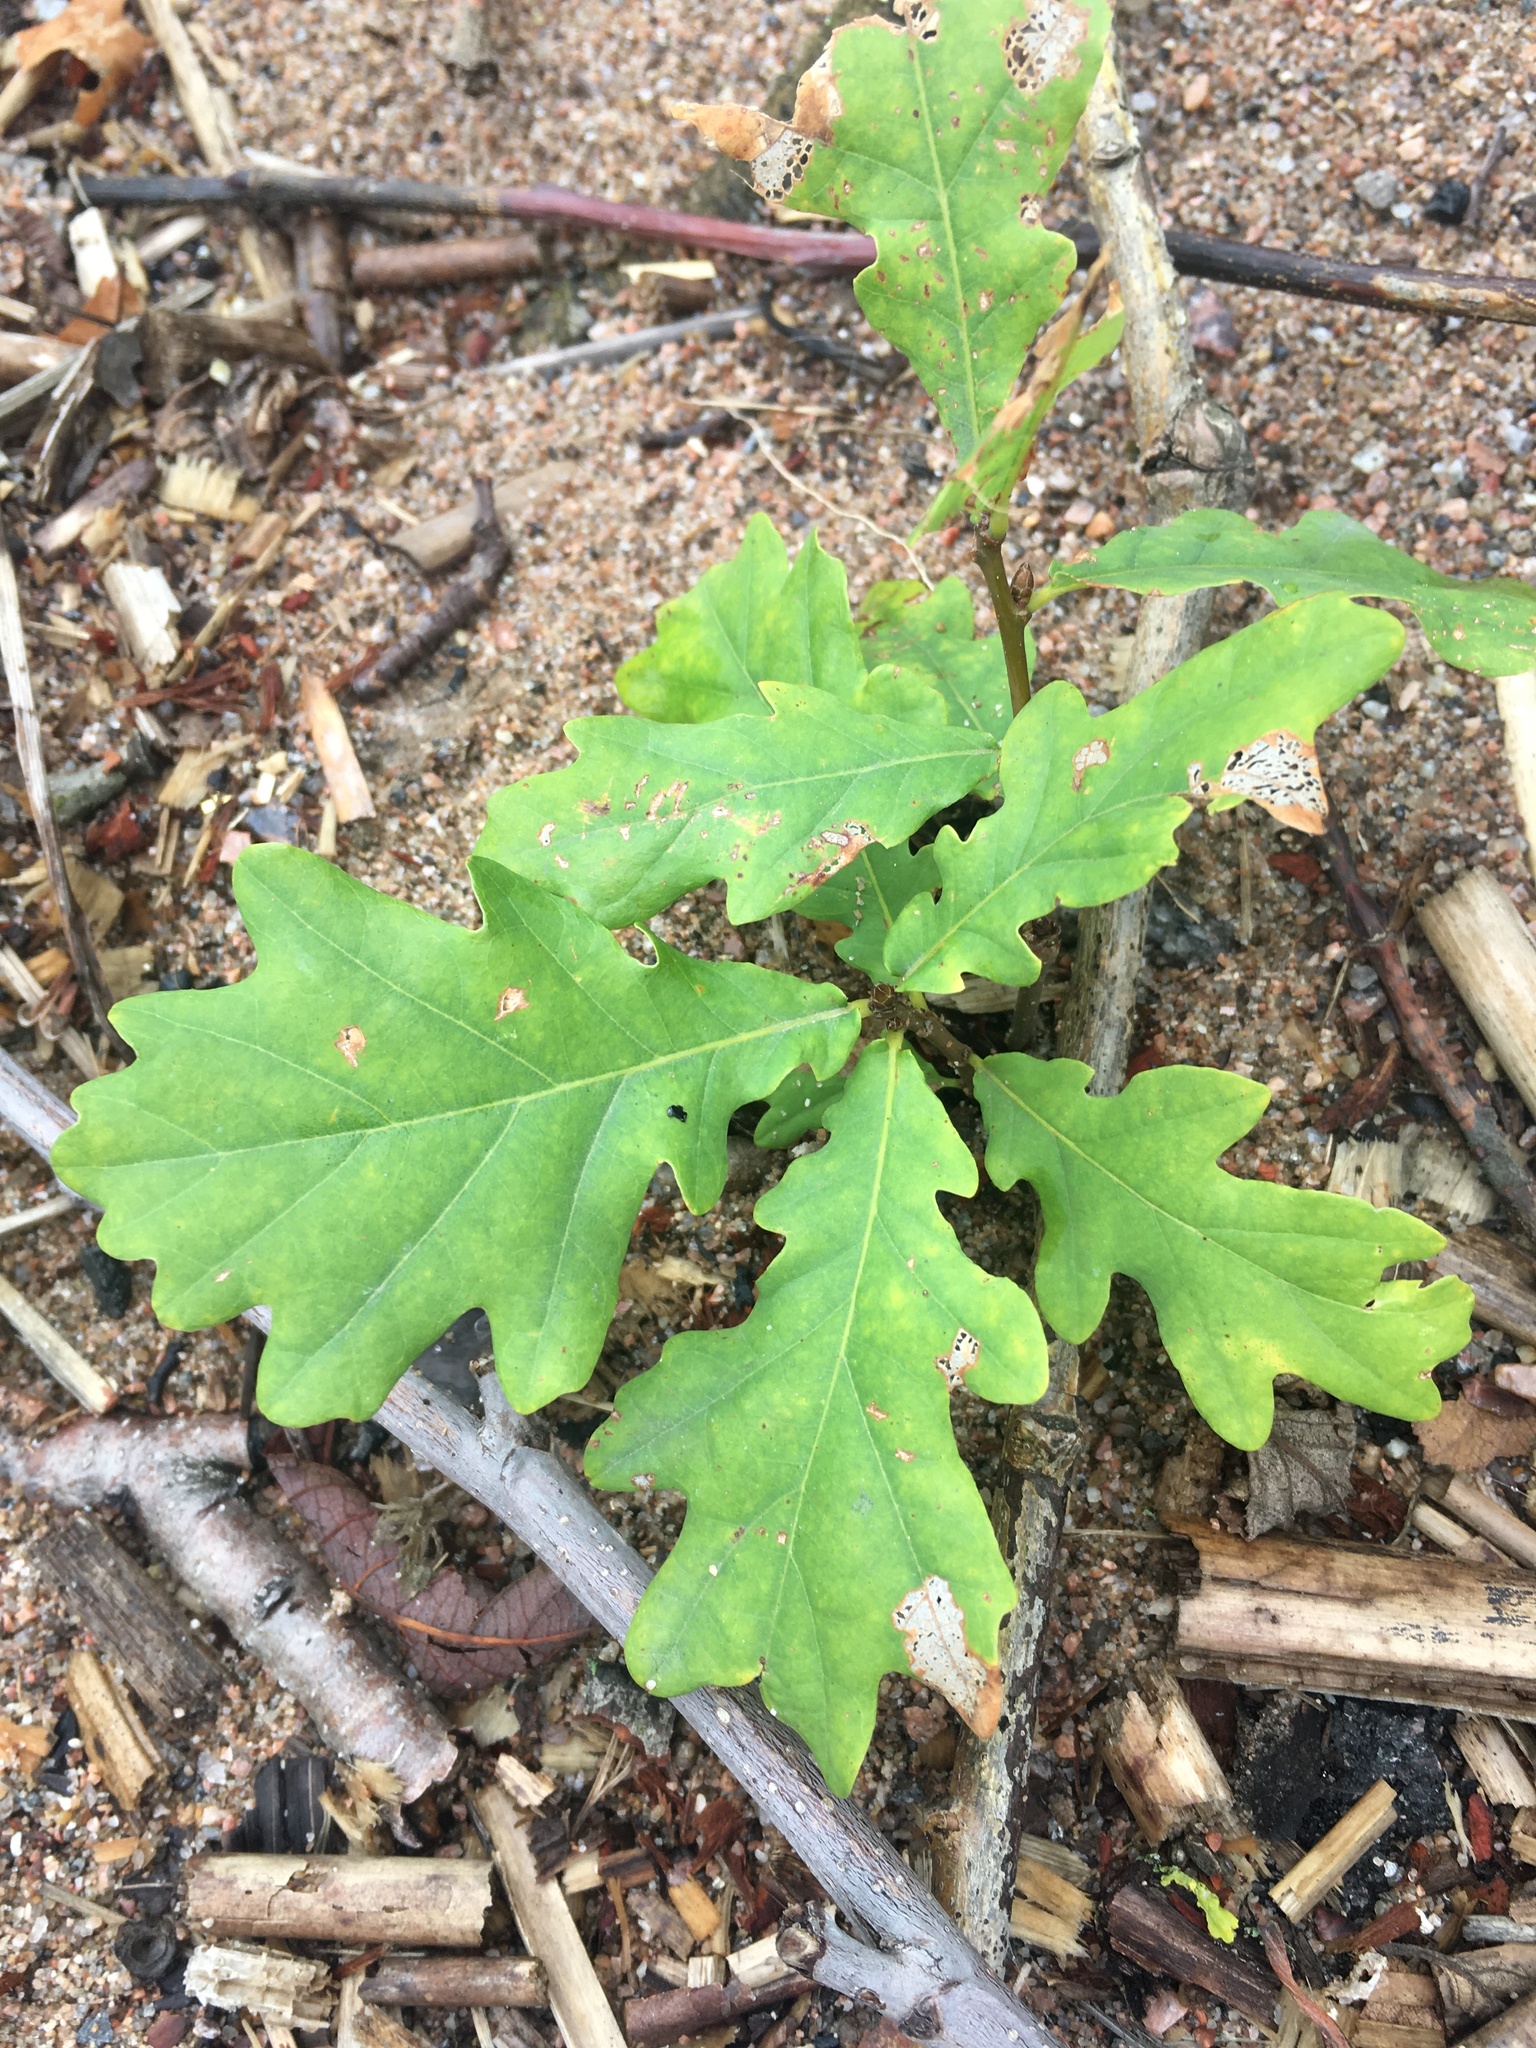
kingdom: Plantae
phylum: Tracheophyta
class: Magnoliopsida
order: Fagales
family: Fagaceae
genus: Quercus
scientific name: Quercus robur
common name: Pedunculate oak
